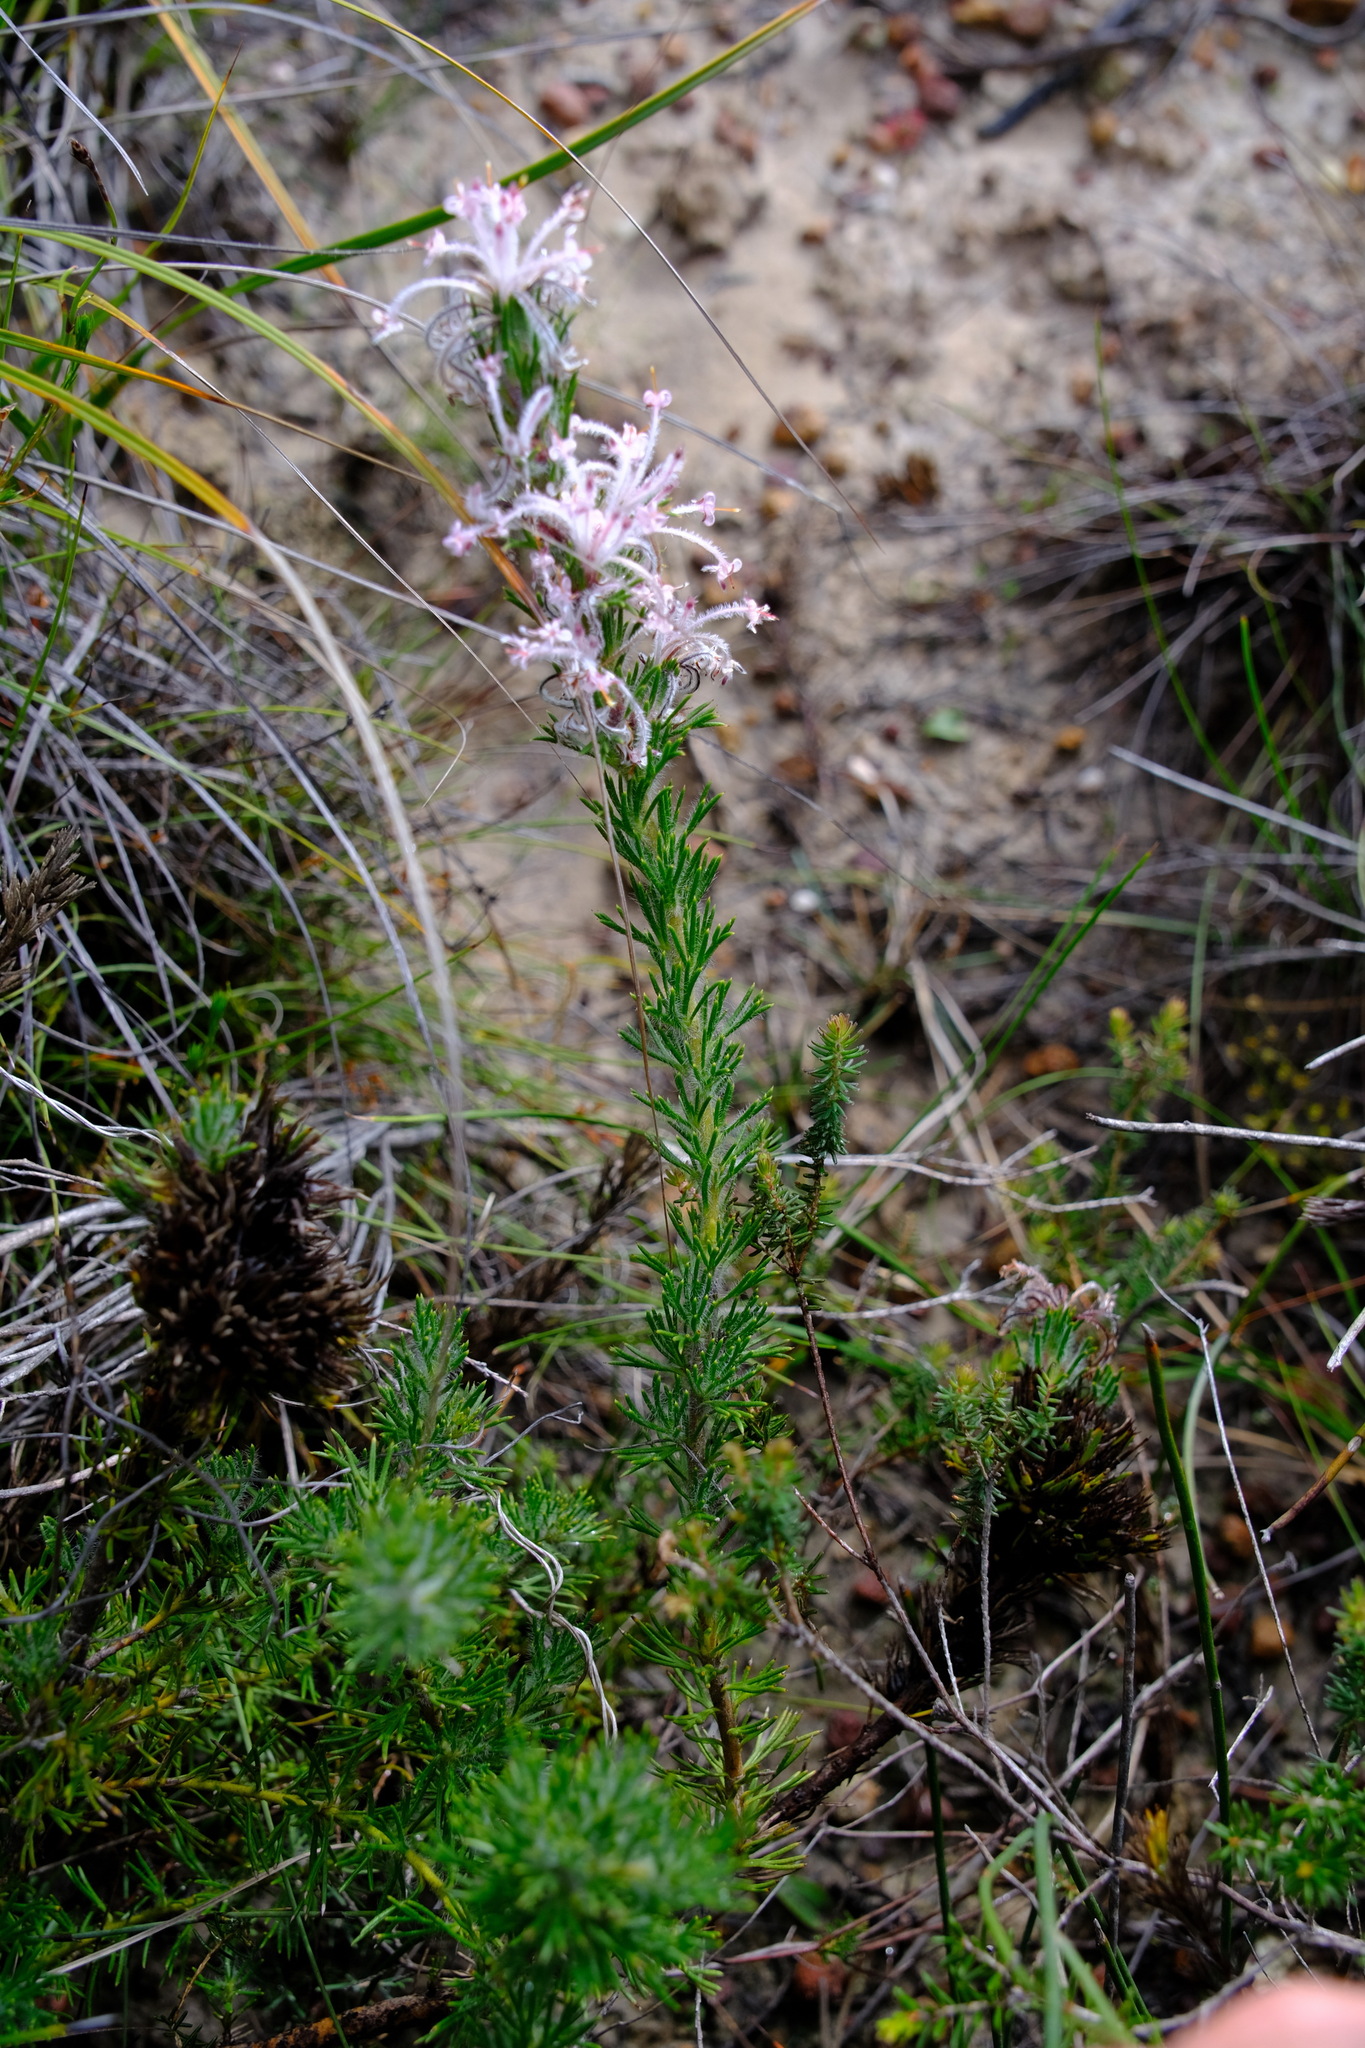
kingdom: Plantae
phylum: Tracheophyta
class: Magnoliopsida
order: Proteales
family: Proteaceae
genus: Isopogon
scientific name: Isopogon inconspicuus
